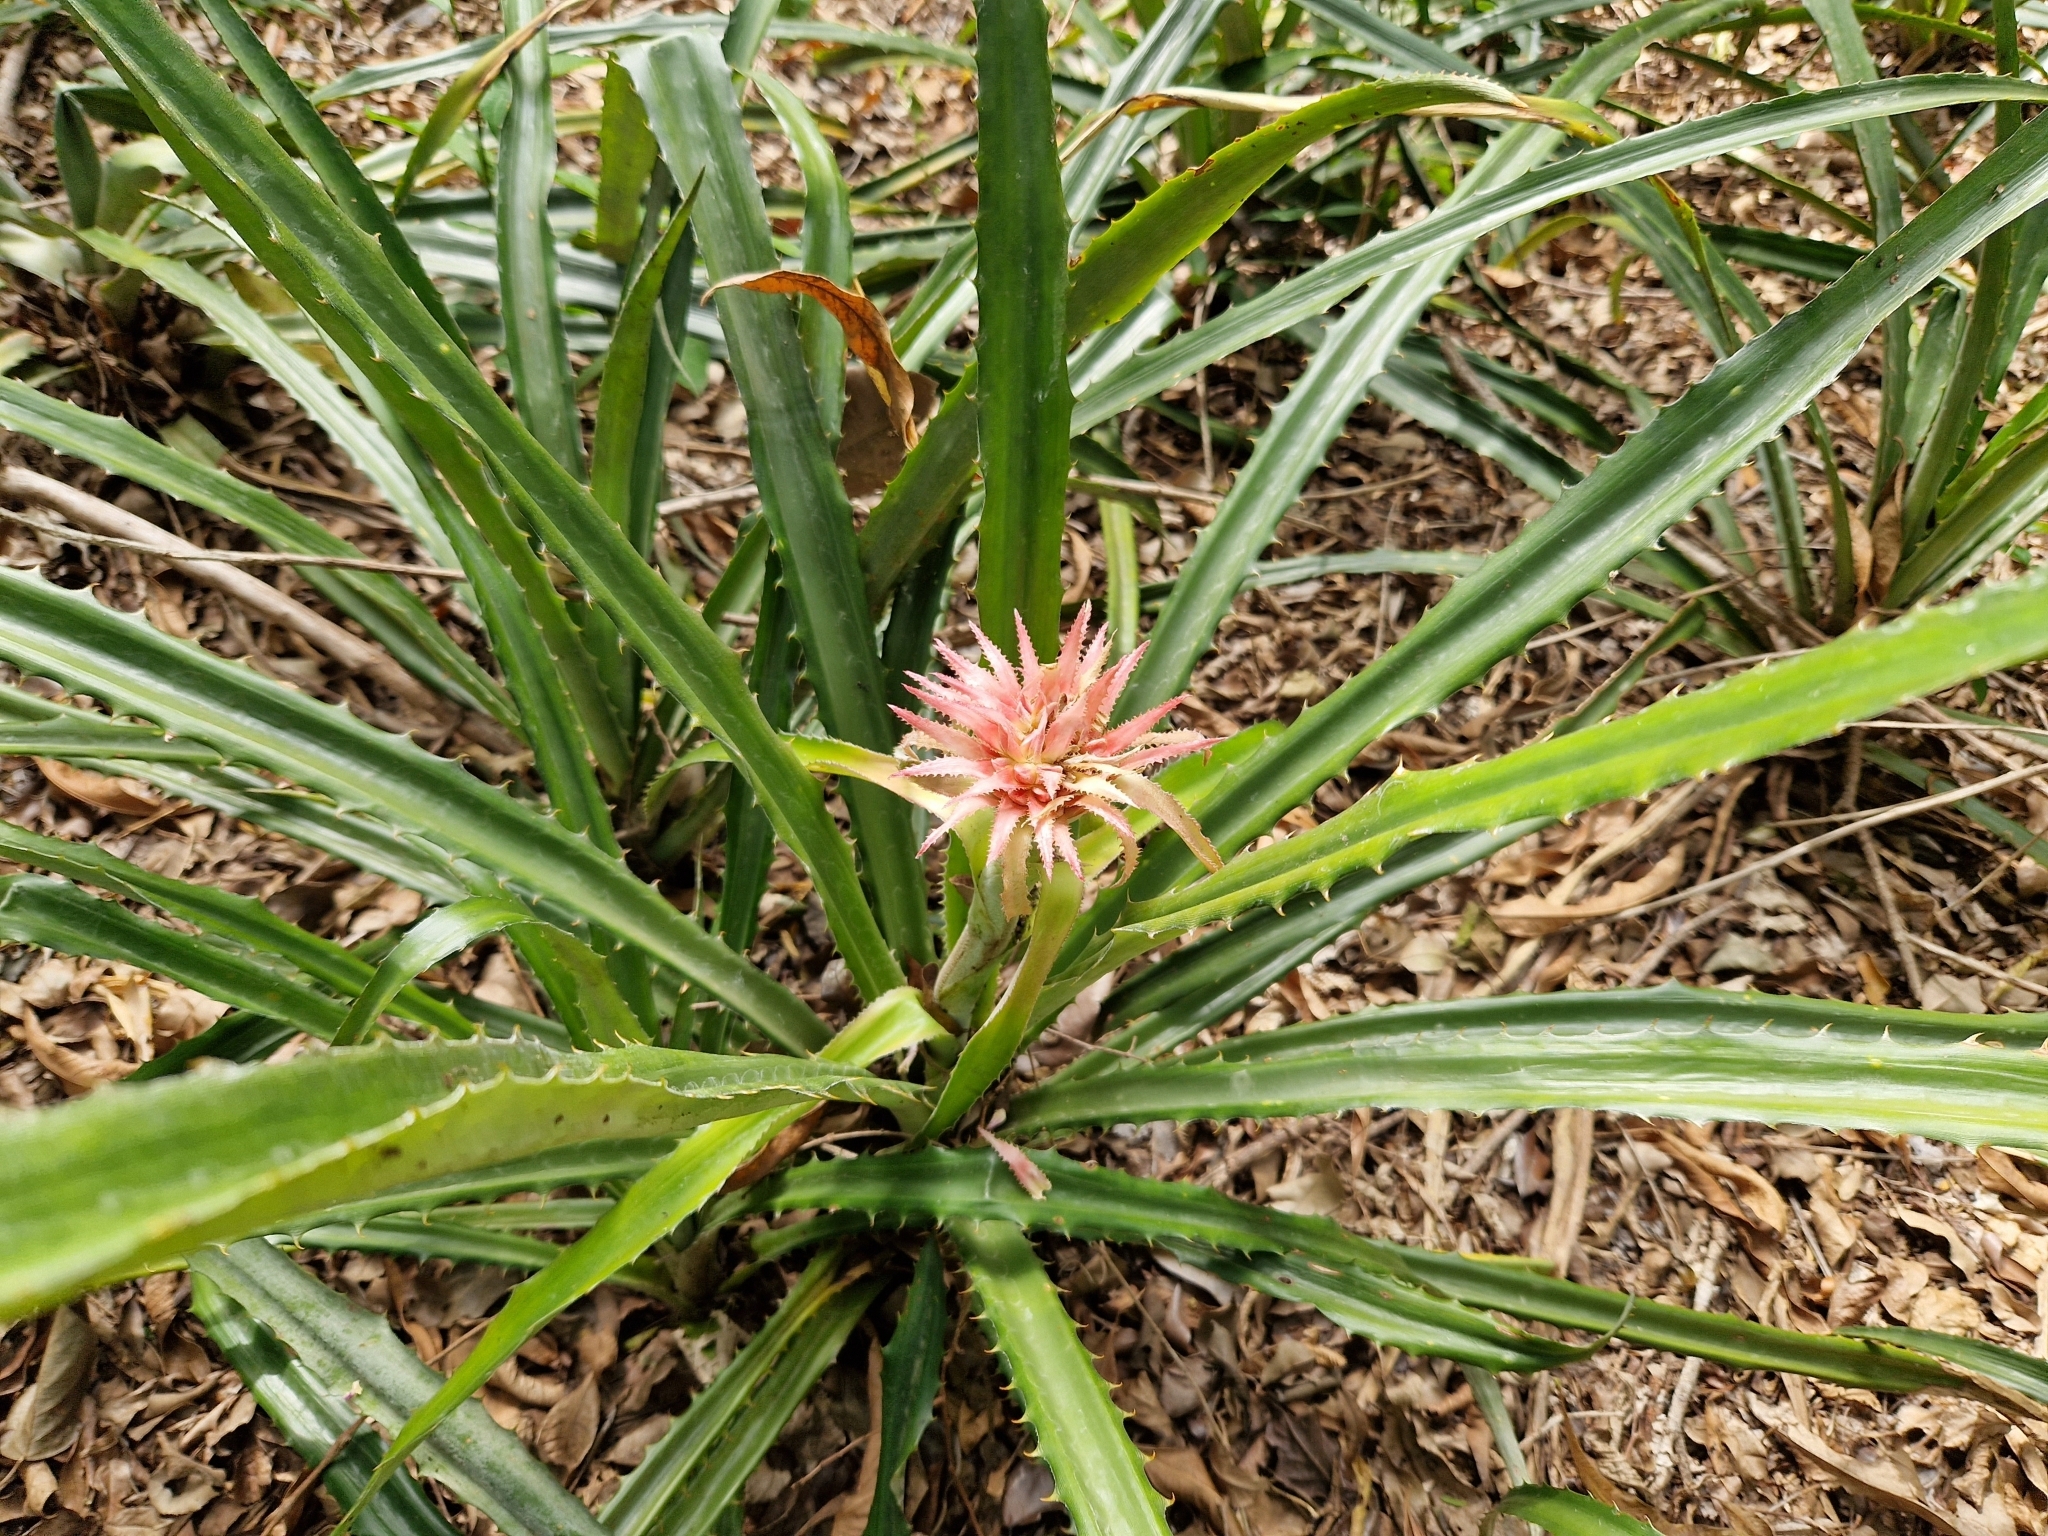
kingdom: Plantae
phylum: Tracheophyta
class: Liliopsida
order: Poales
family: Bromeliaceae
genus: Ananas
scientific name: Ananas macrodontes
